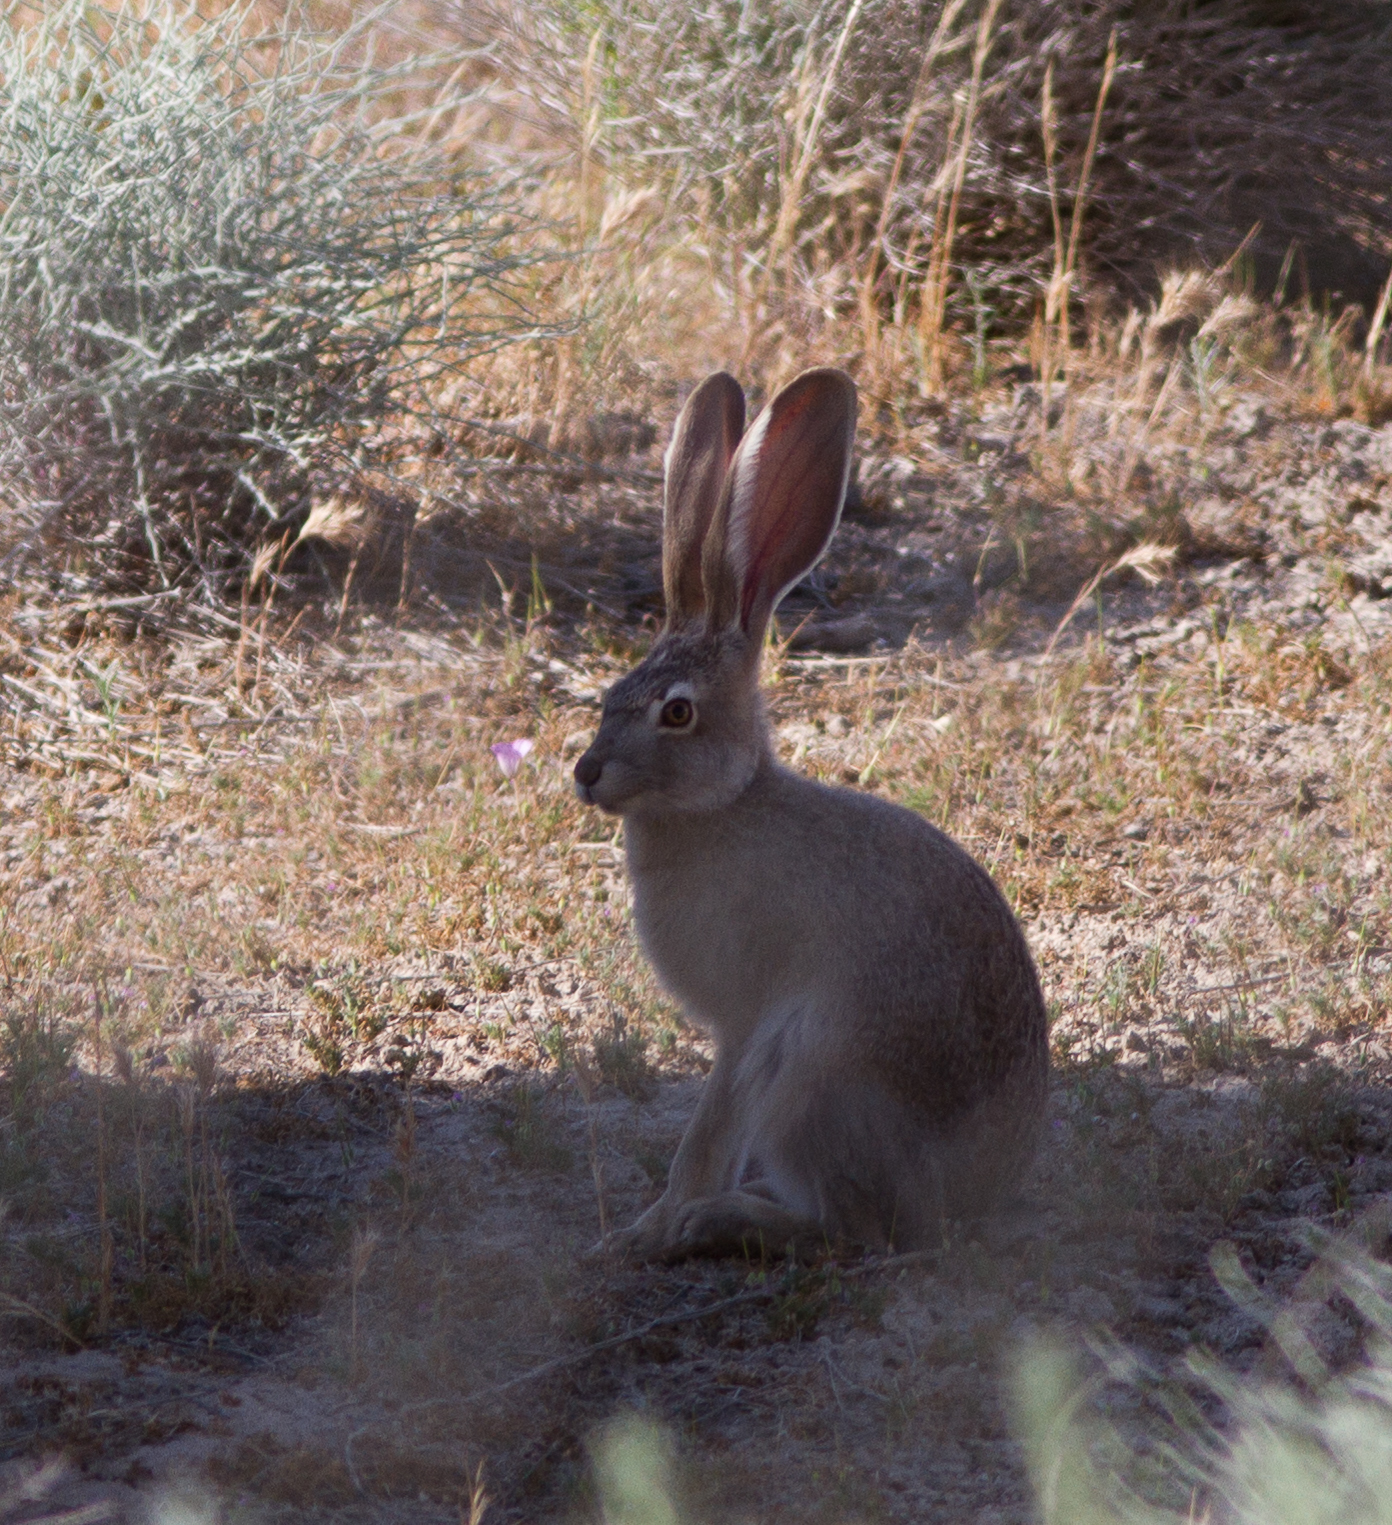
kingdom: Animalia
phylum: Chordata
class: Mammalia
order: Lagomorpha
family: Leporidae
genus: Lepus
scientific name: Lepus californicus
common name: Black-tailed jackrabbit
